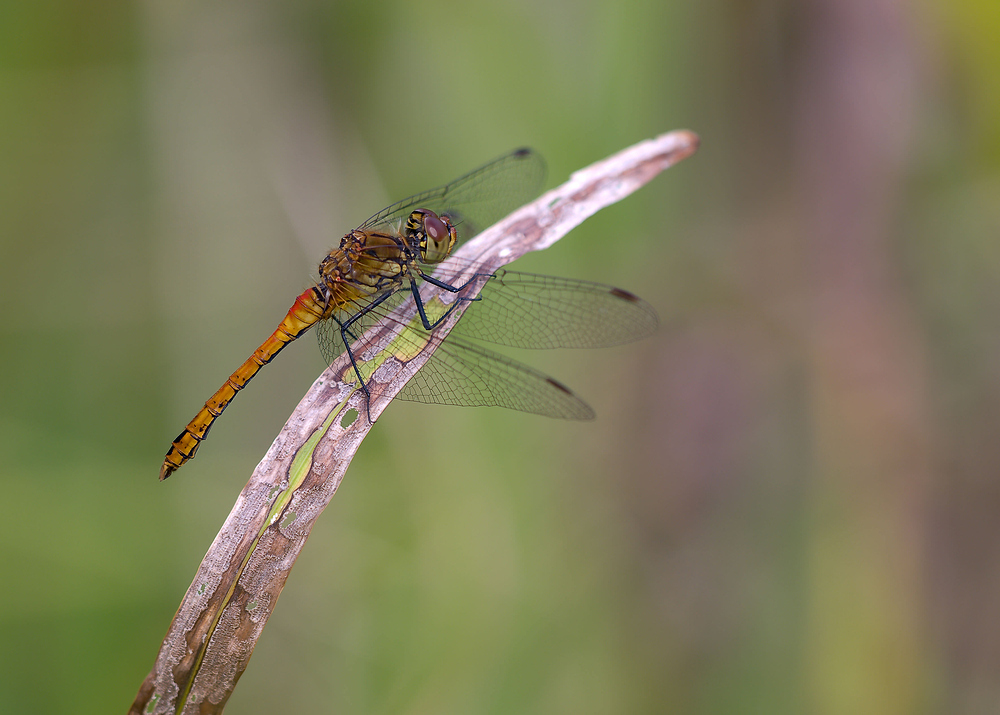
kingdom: Animalia
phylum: Arthropoda
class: Insecta
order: Odonata
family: Libellulidae
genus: Sympetrum
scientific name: Sympetrum sanguineum
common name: Ruddy darter
